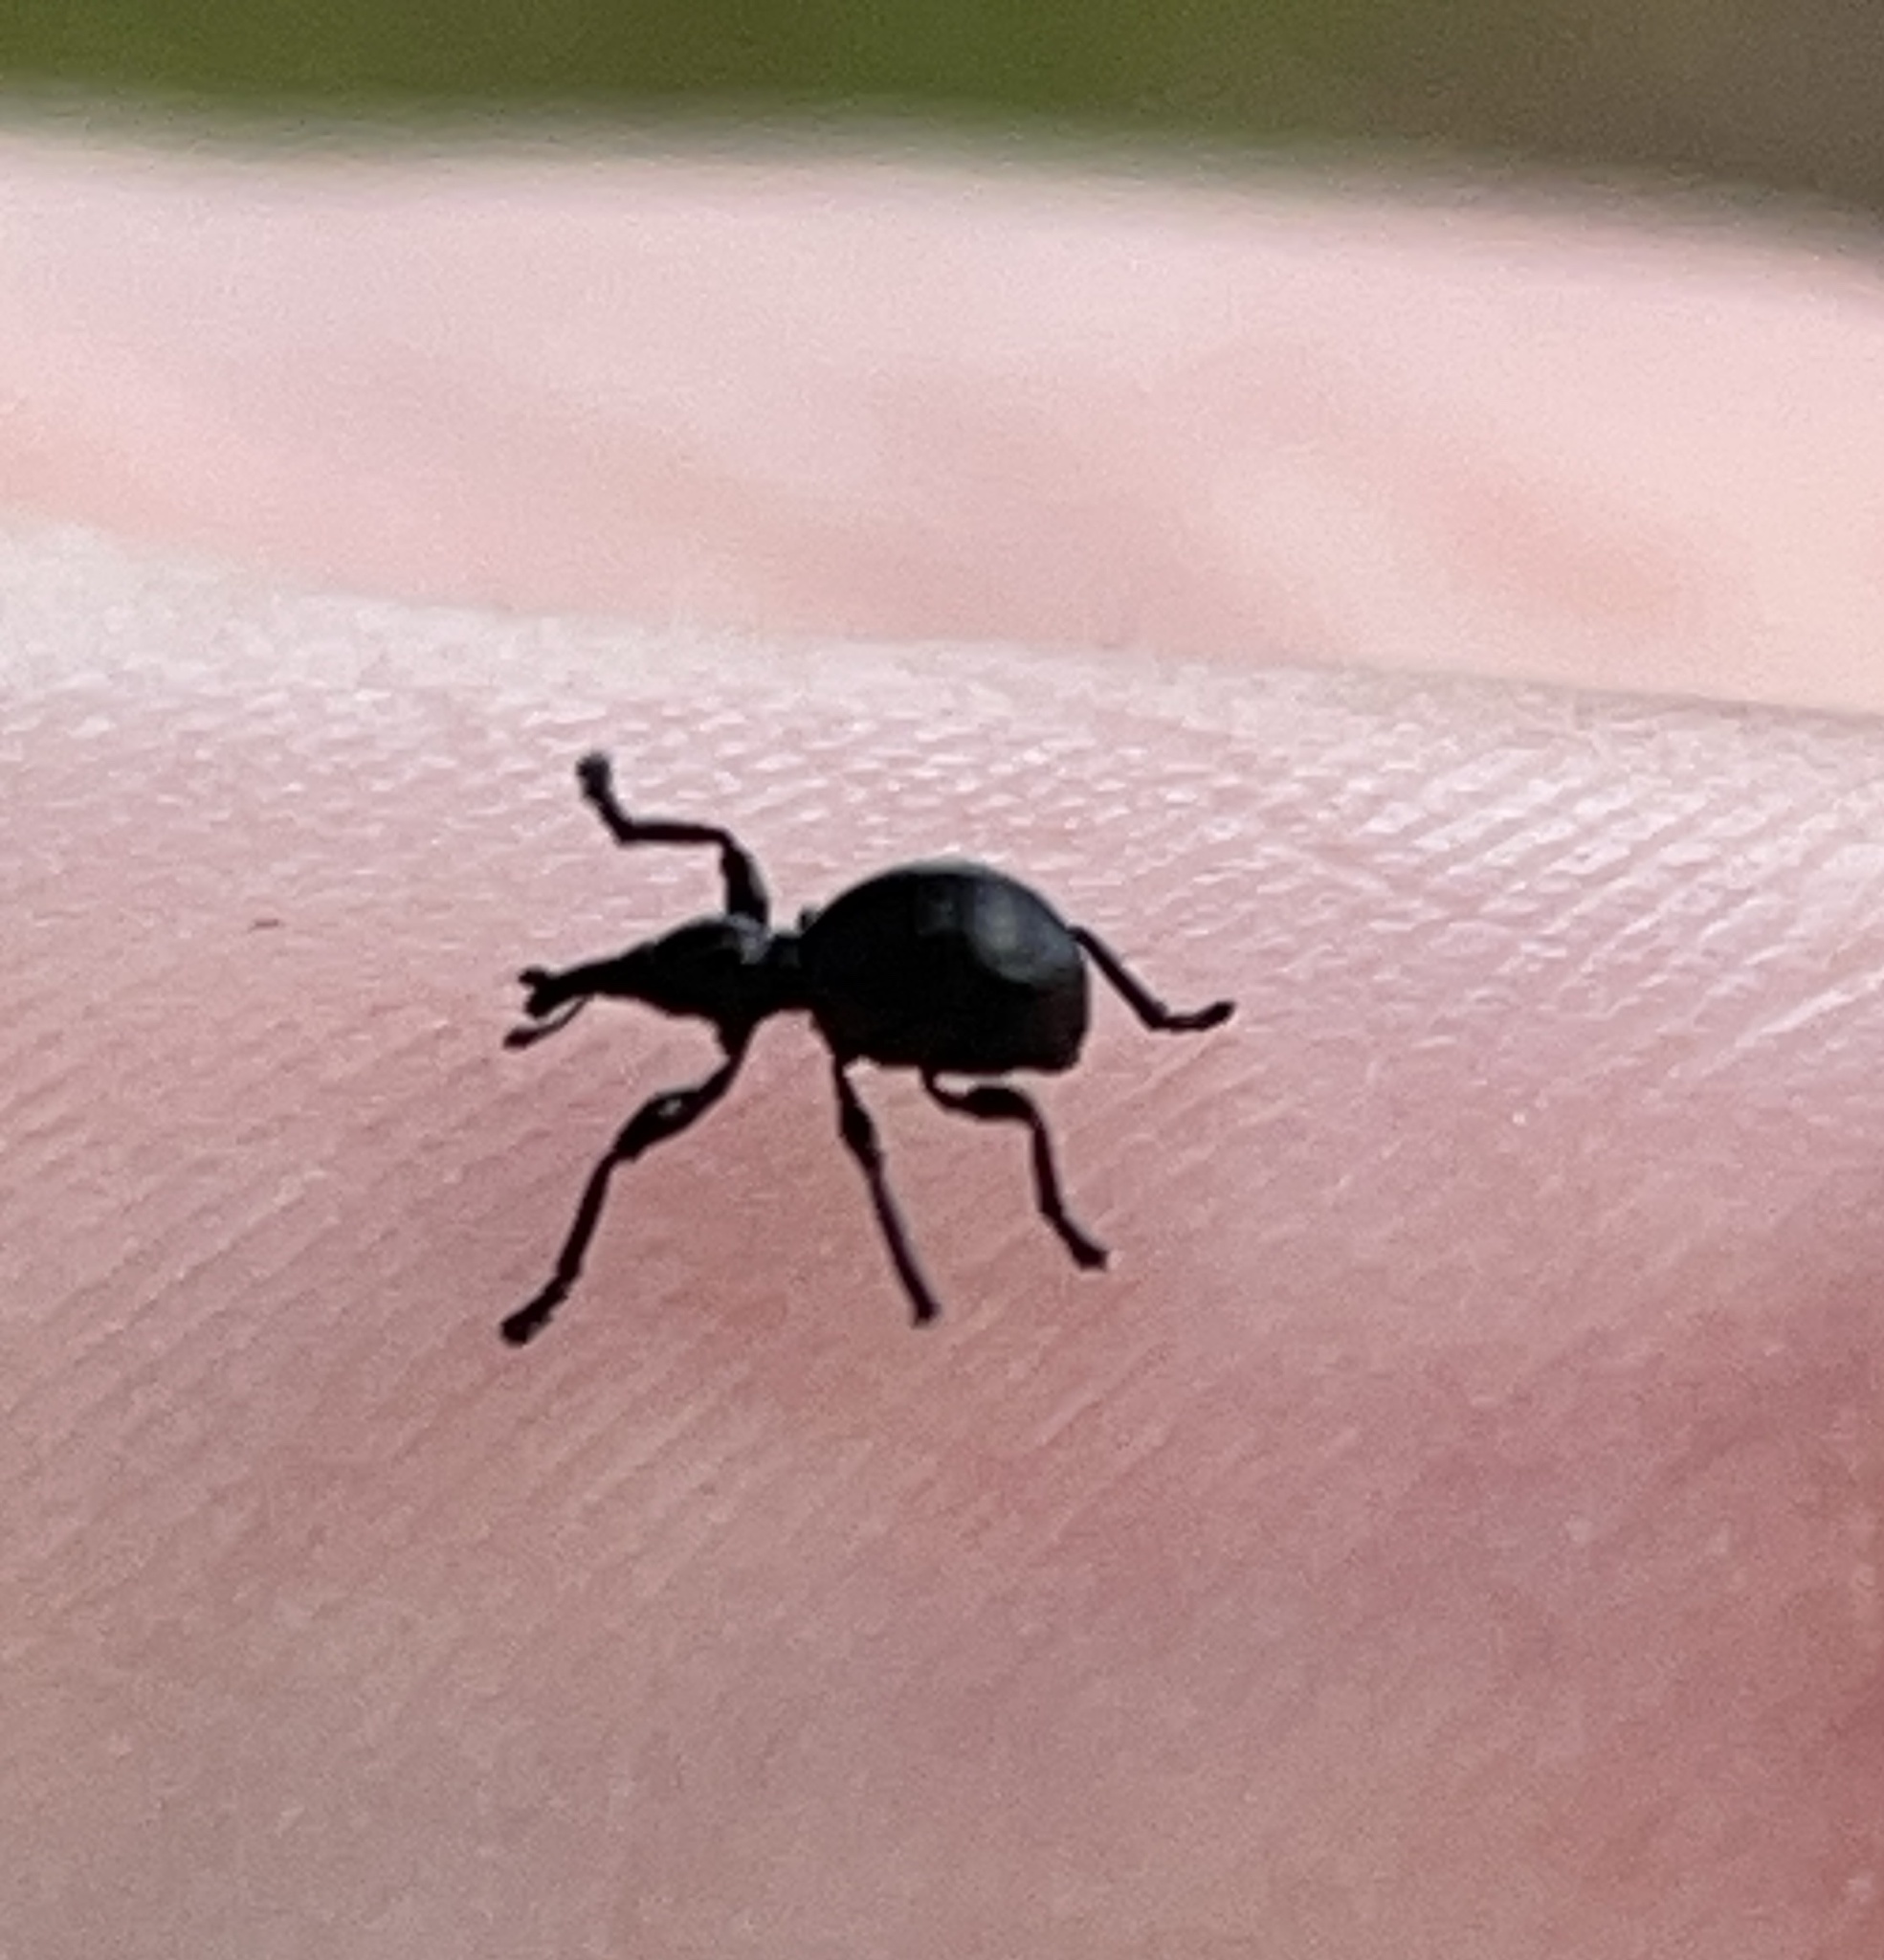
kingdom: Animalia
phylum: Arthropoda
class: Insecta
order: Coleoptera
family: Brentidae
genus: Rhynolaccus
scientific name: Rhynolaccus formicarius
